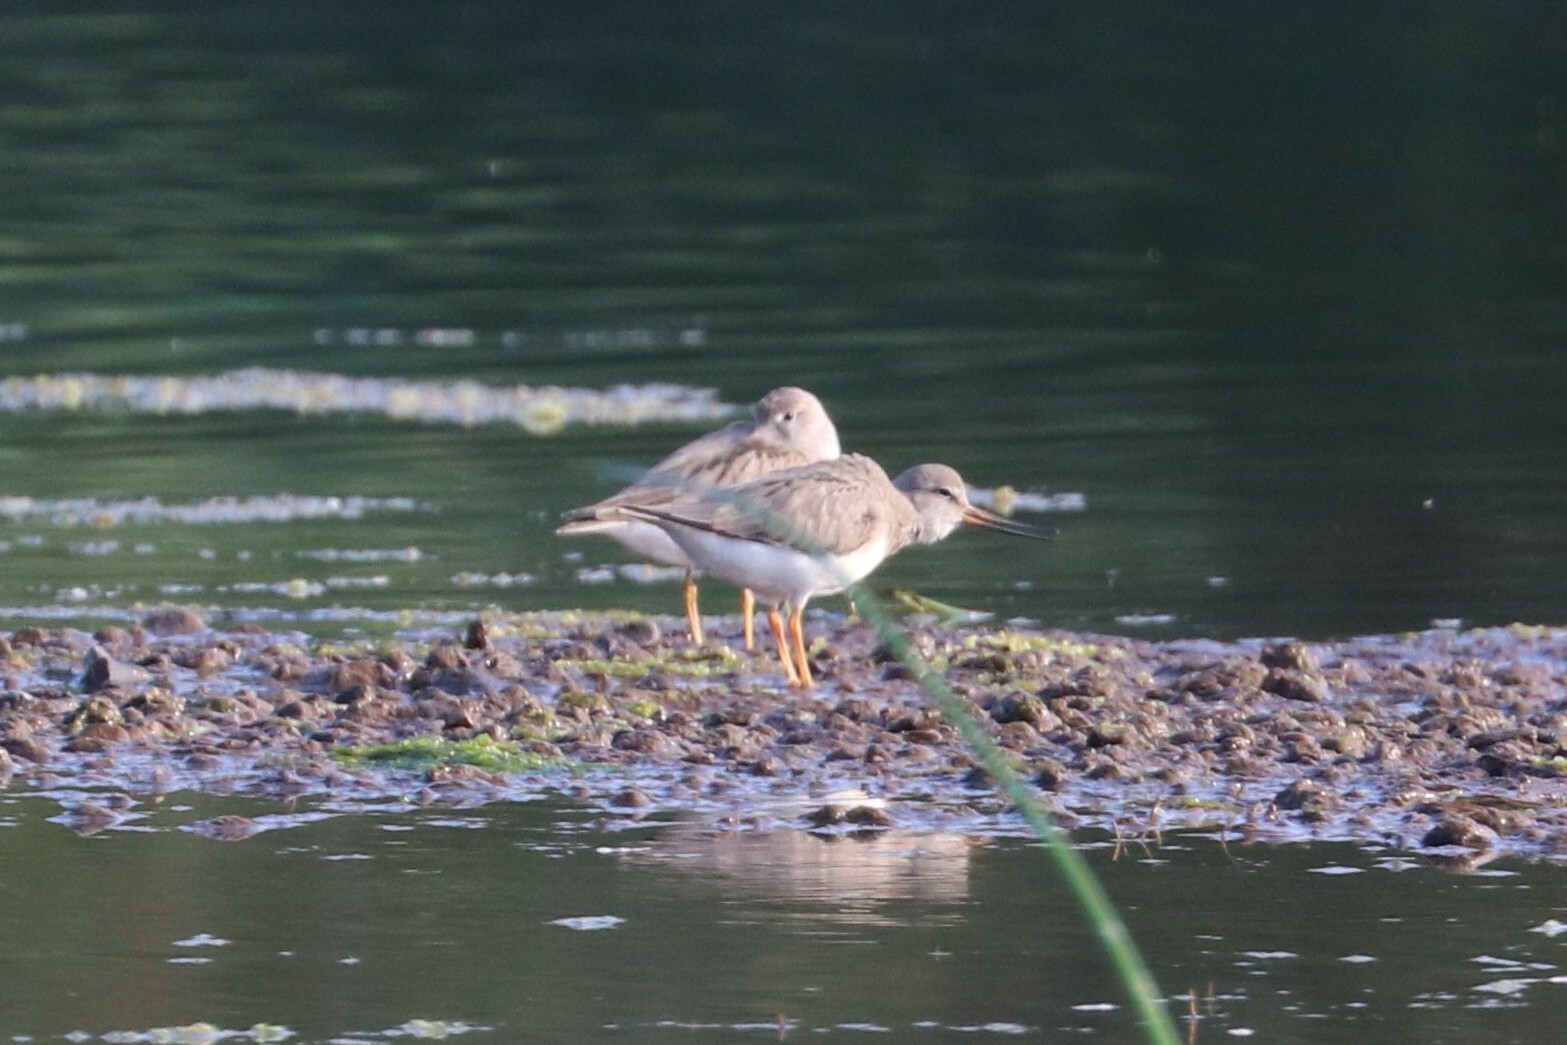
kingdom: Animalia
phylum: Chordata
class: Aves
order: Charadriiformes
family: Scolopacidae
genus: Xenus
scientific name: Xenus cinereus
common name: Terek sandpiper
